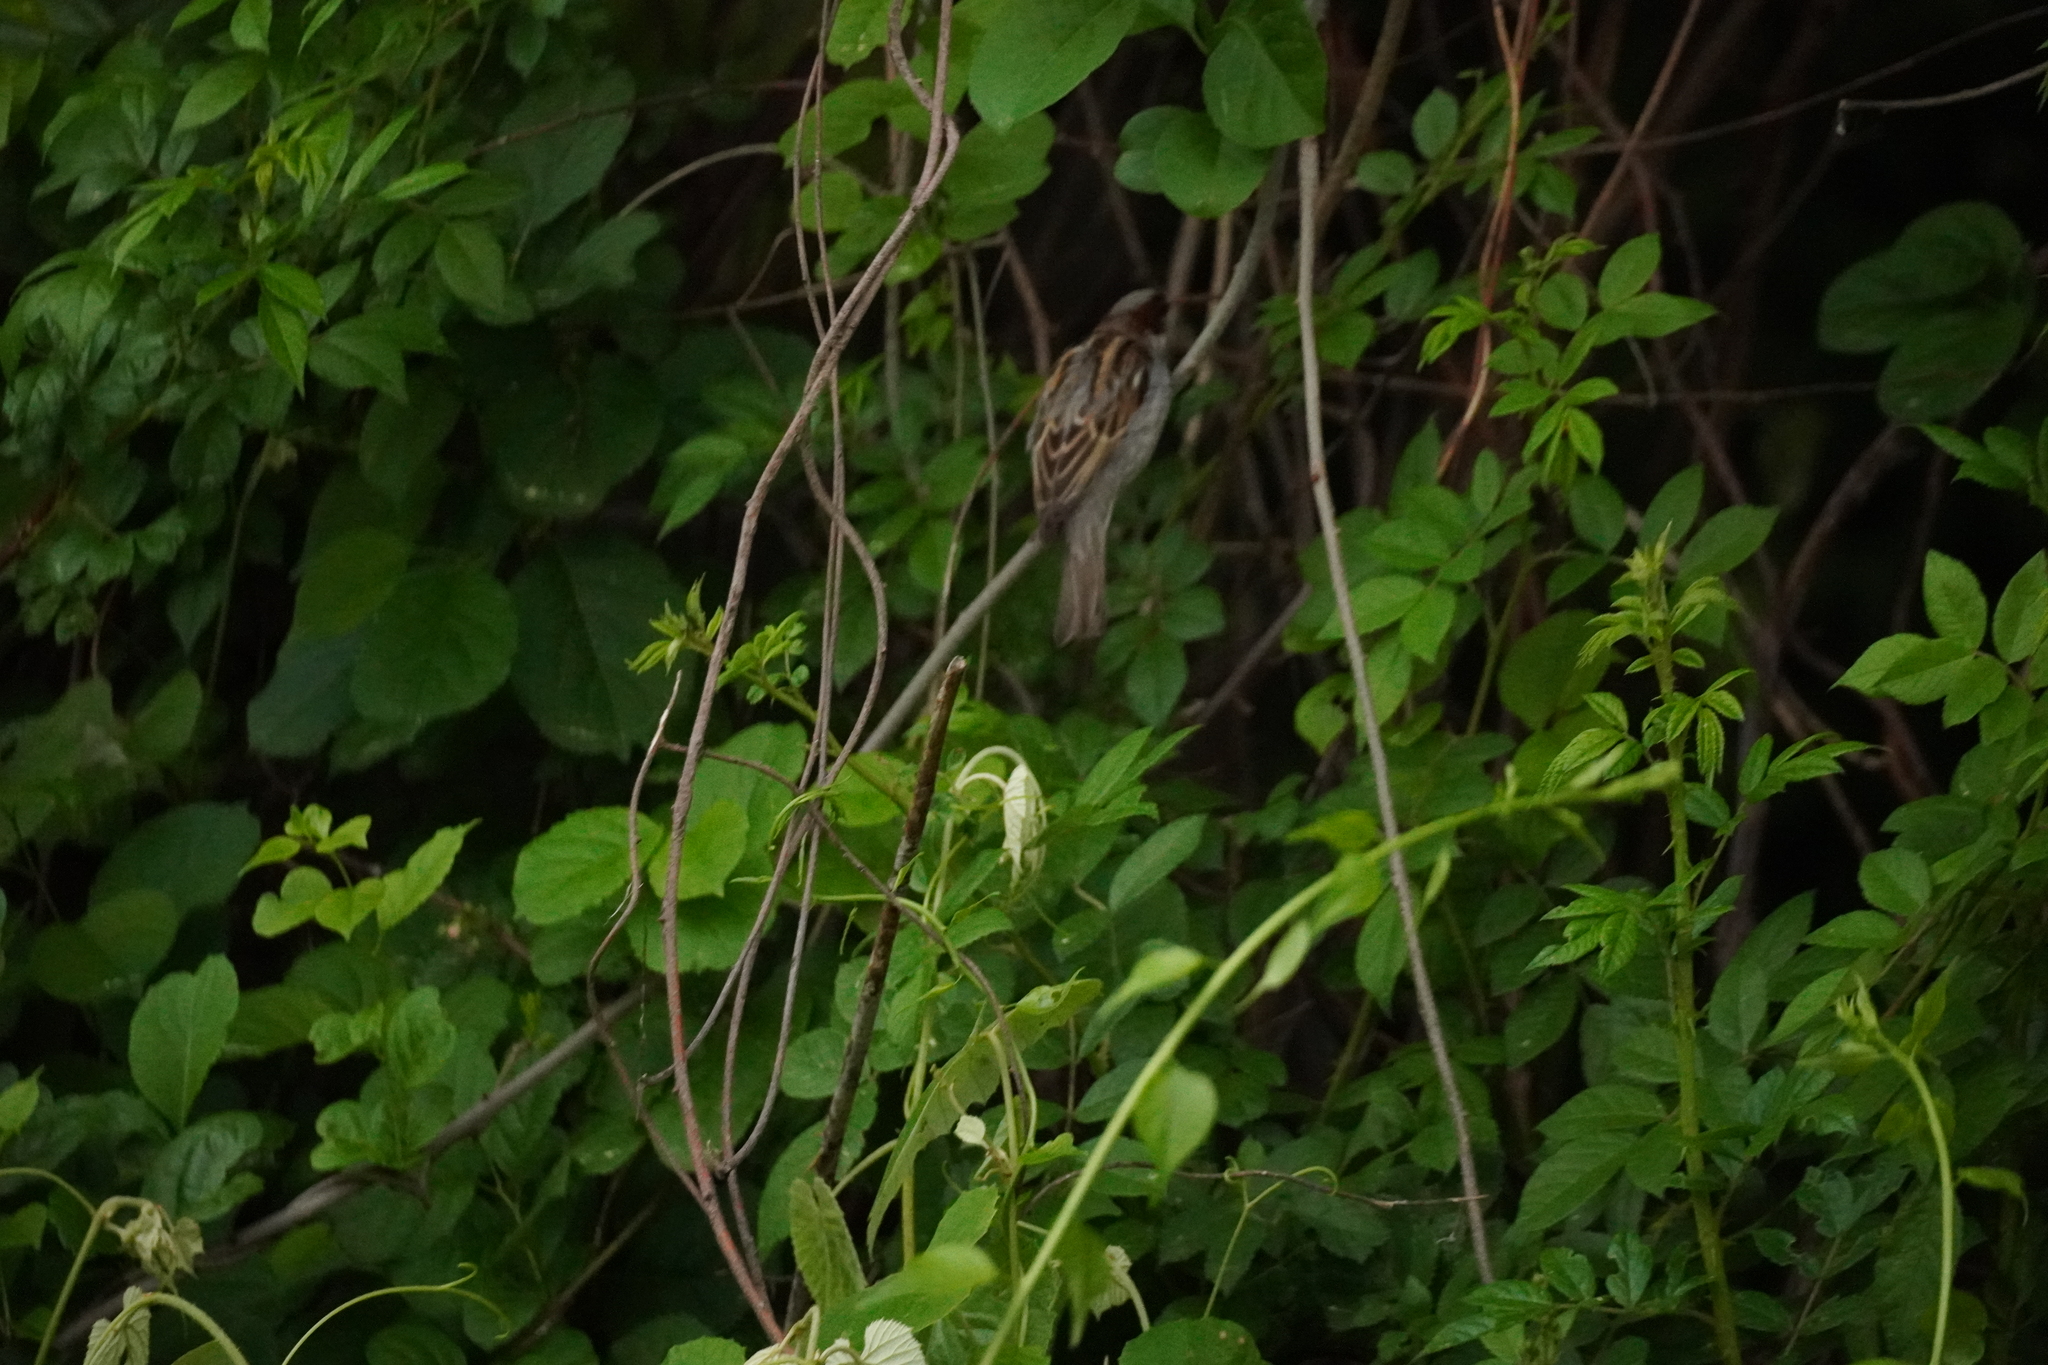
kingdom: Animalia
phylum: Chordata
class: Aves
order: Passeriformes
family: Passeridae
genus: Passer
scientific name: Passer domesticus
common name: House sparrow
